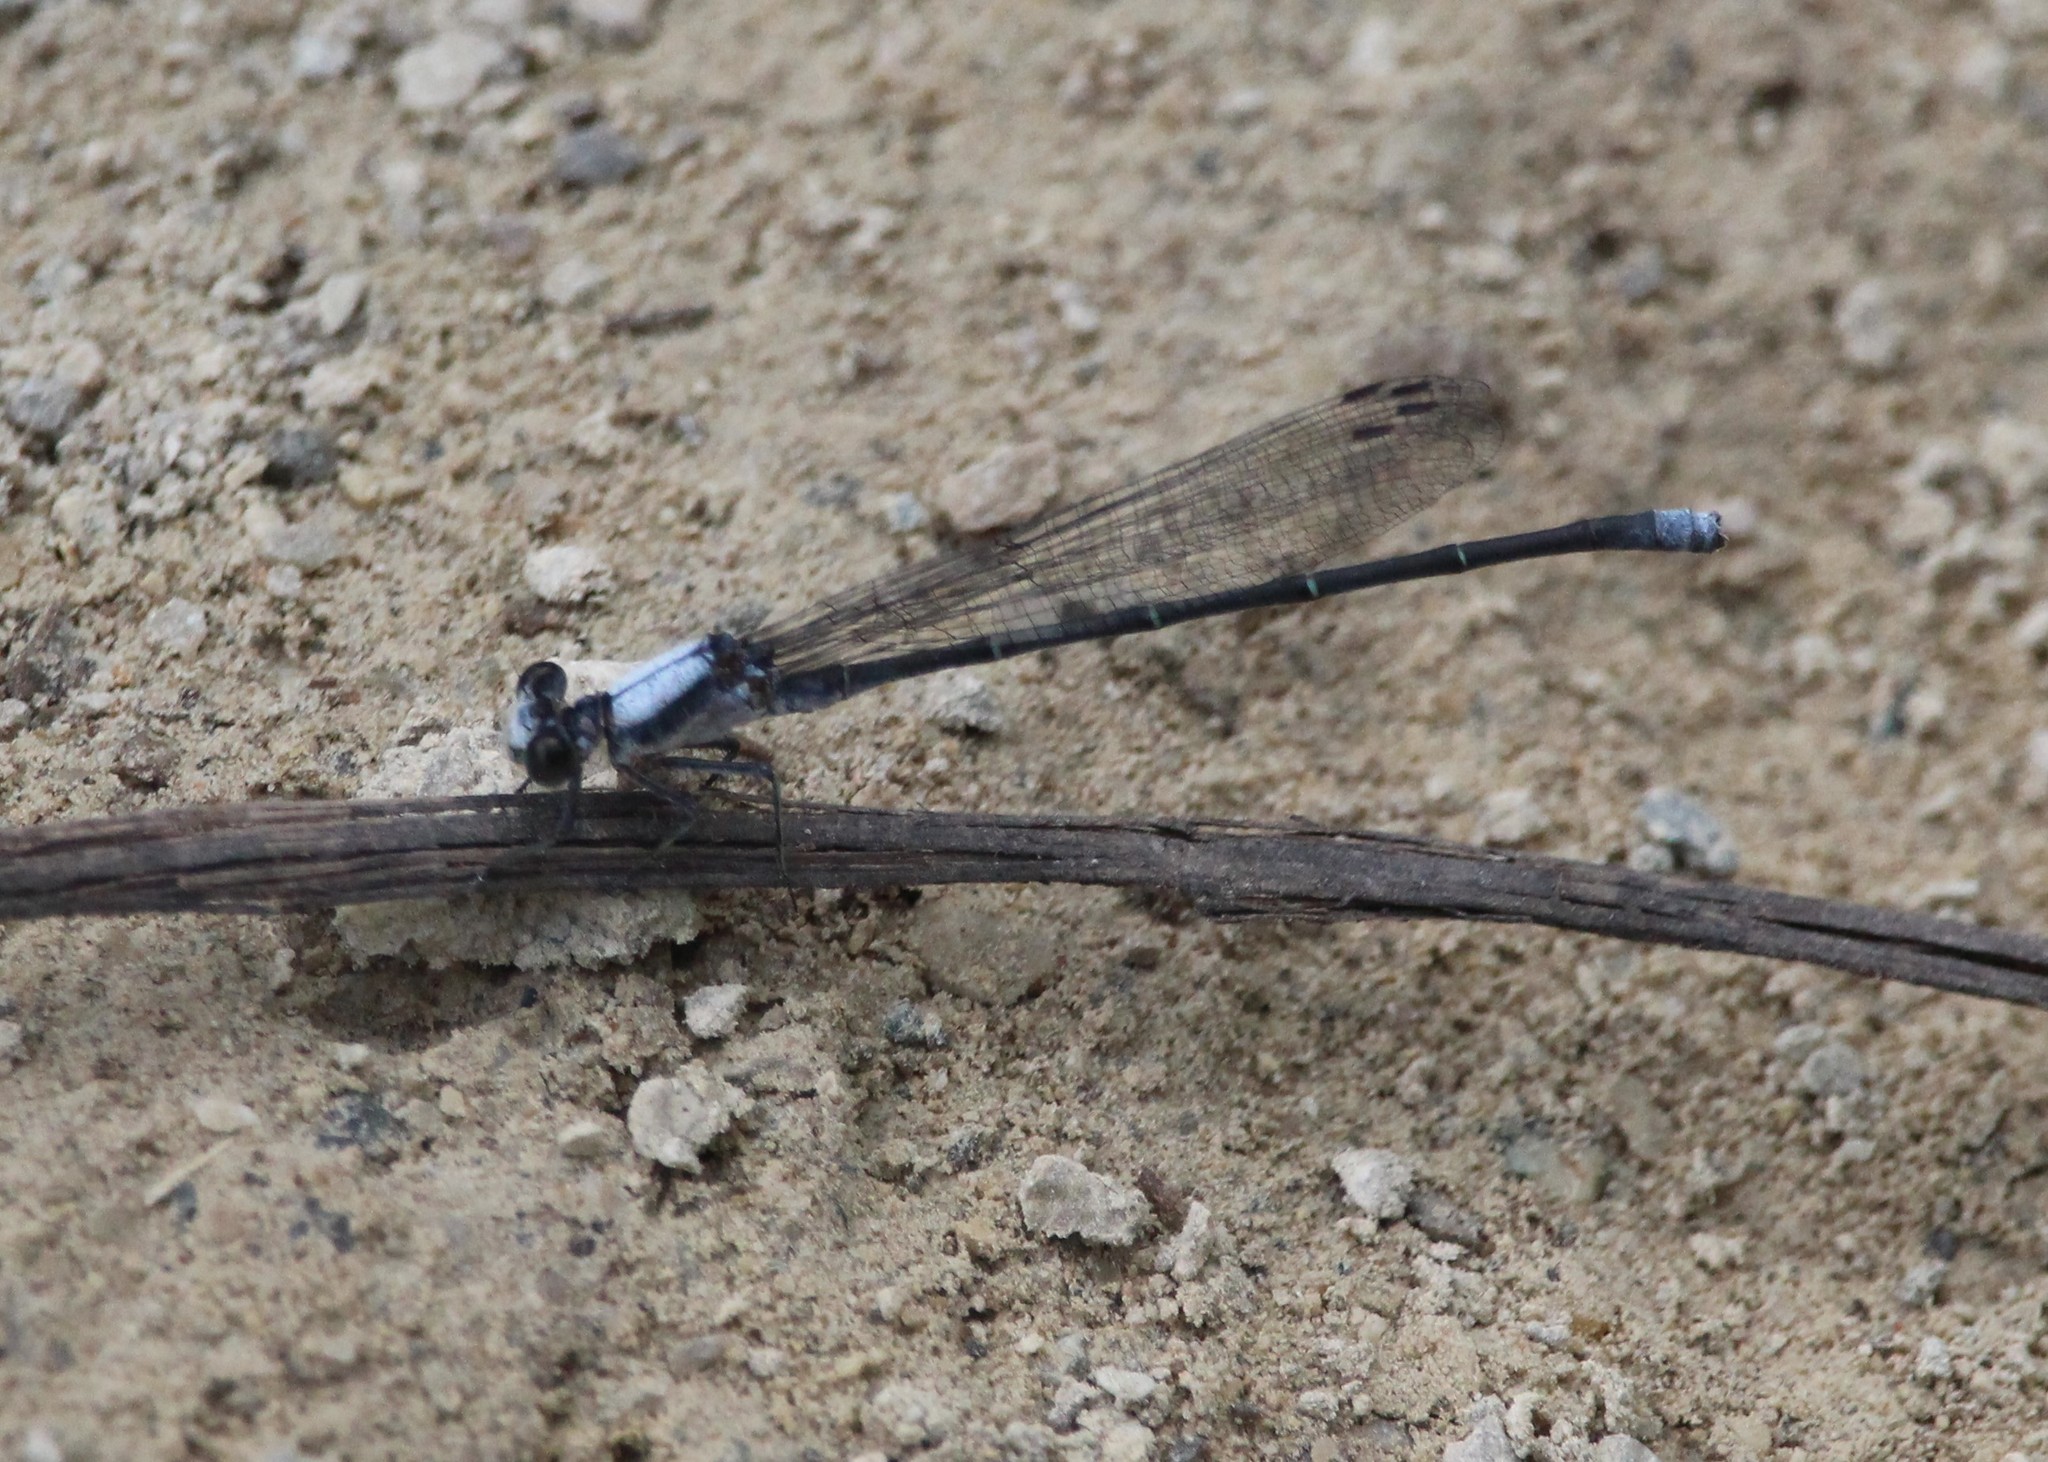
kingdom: Animalia
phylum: Arthropoda
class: Insecta
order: Odonata
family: Coenagrionidae
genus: Argia
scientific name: Argia moesta
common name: Powdered dancer
